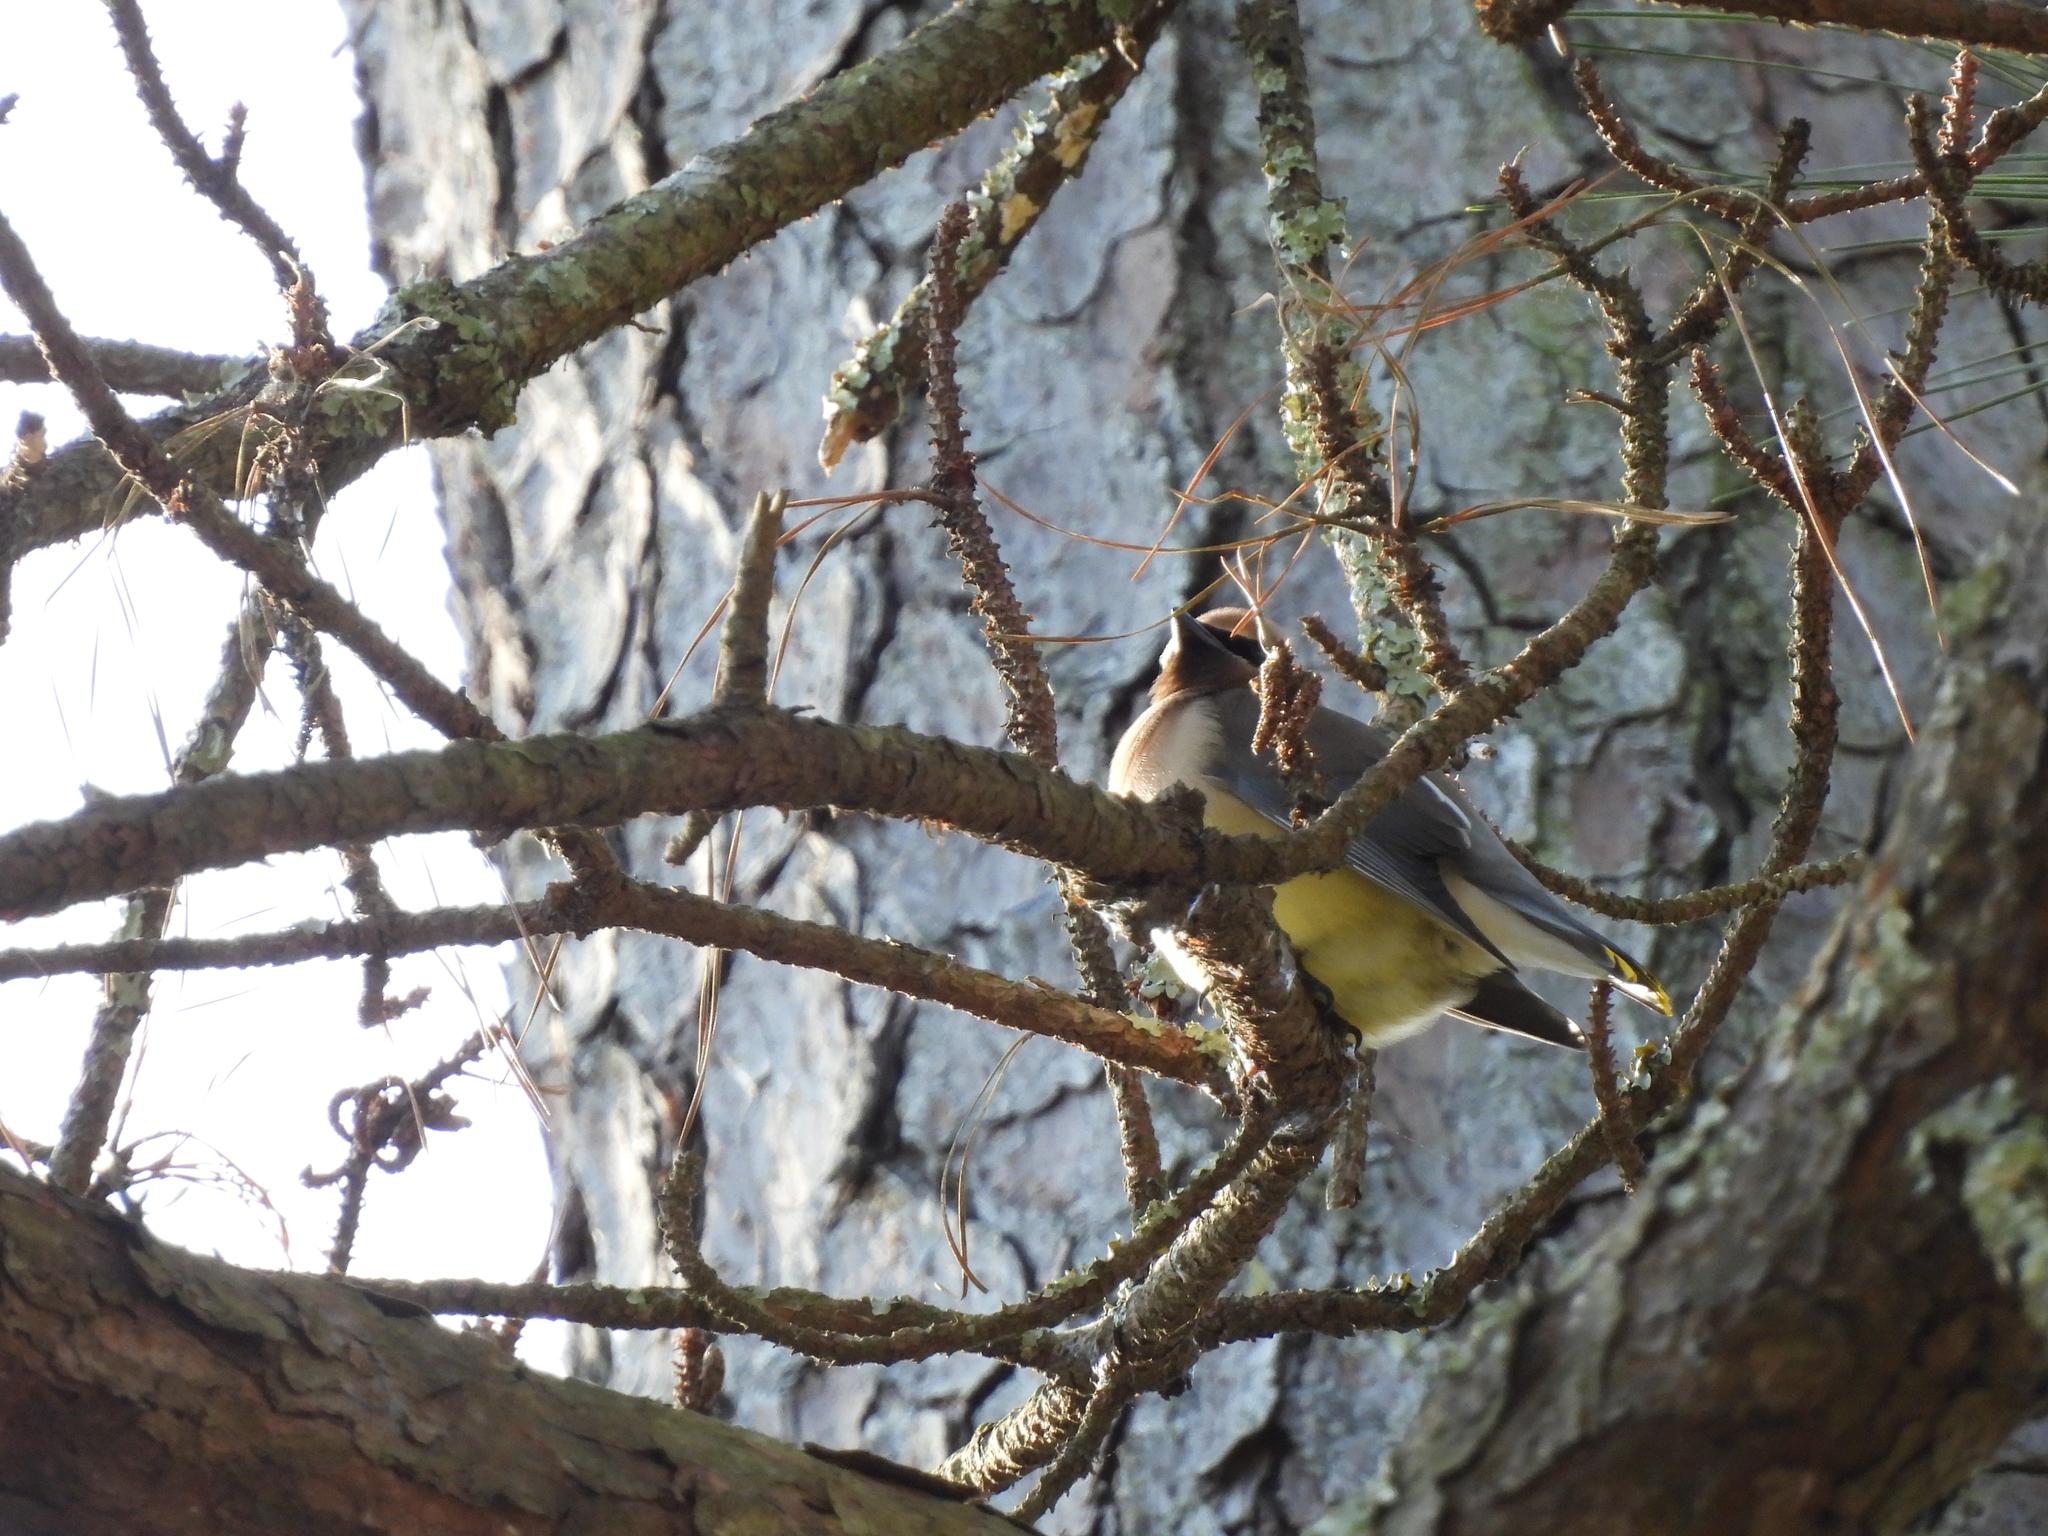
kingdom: Animalia
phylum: Chordata
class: Aves
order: Passeriformes
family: Bombycillidae
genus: Bombycilla
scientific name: Bombycilla cedrorum
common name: Cedar waxwing
